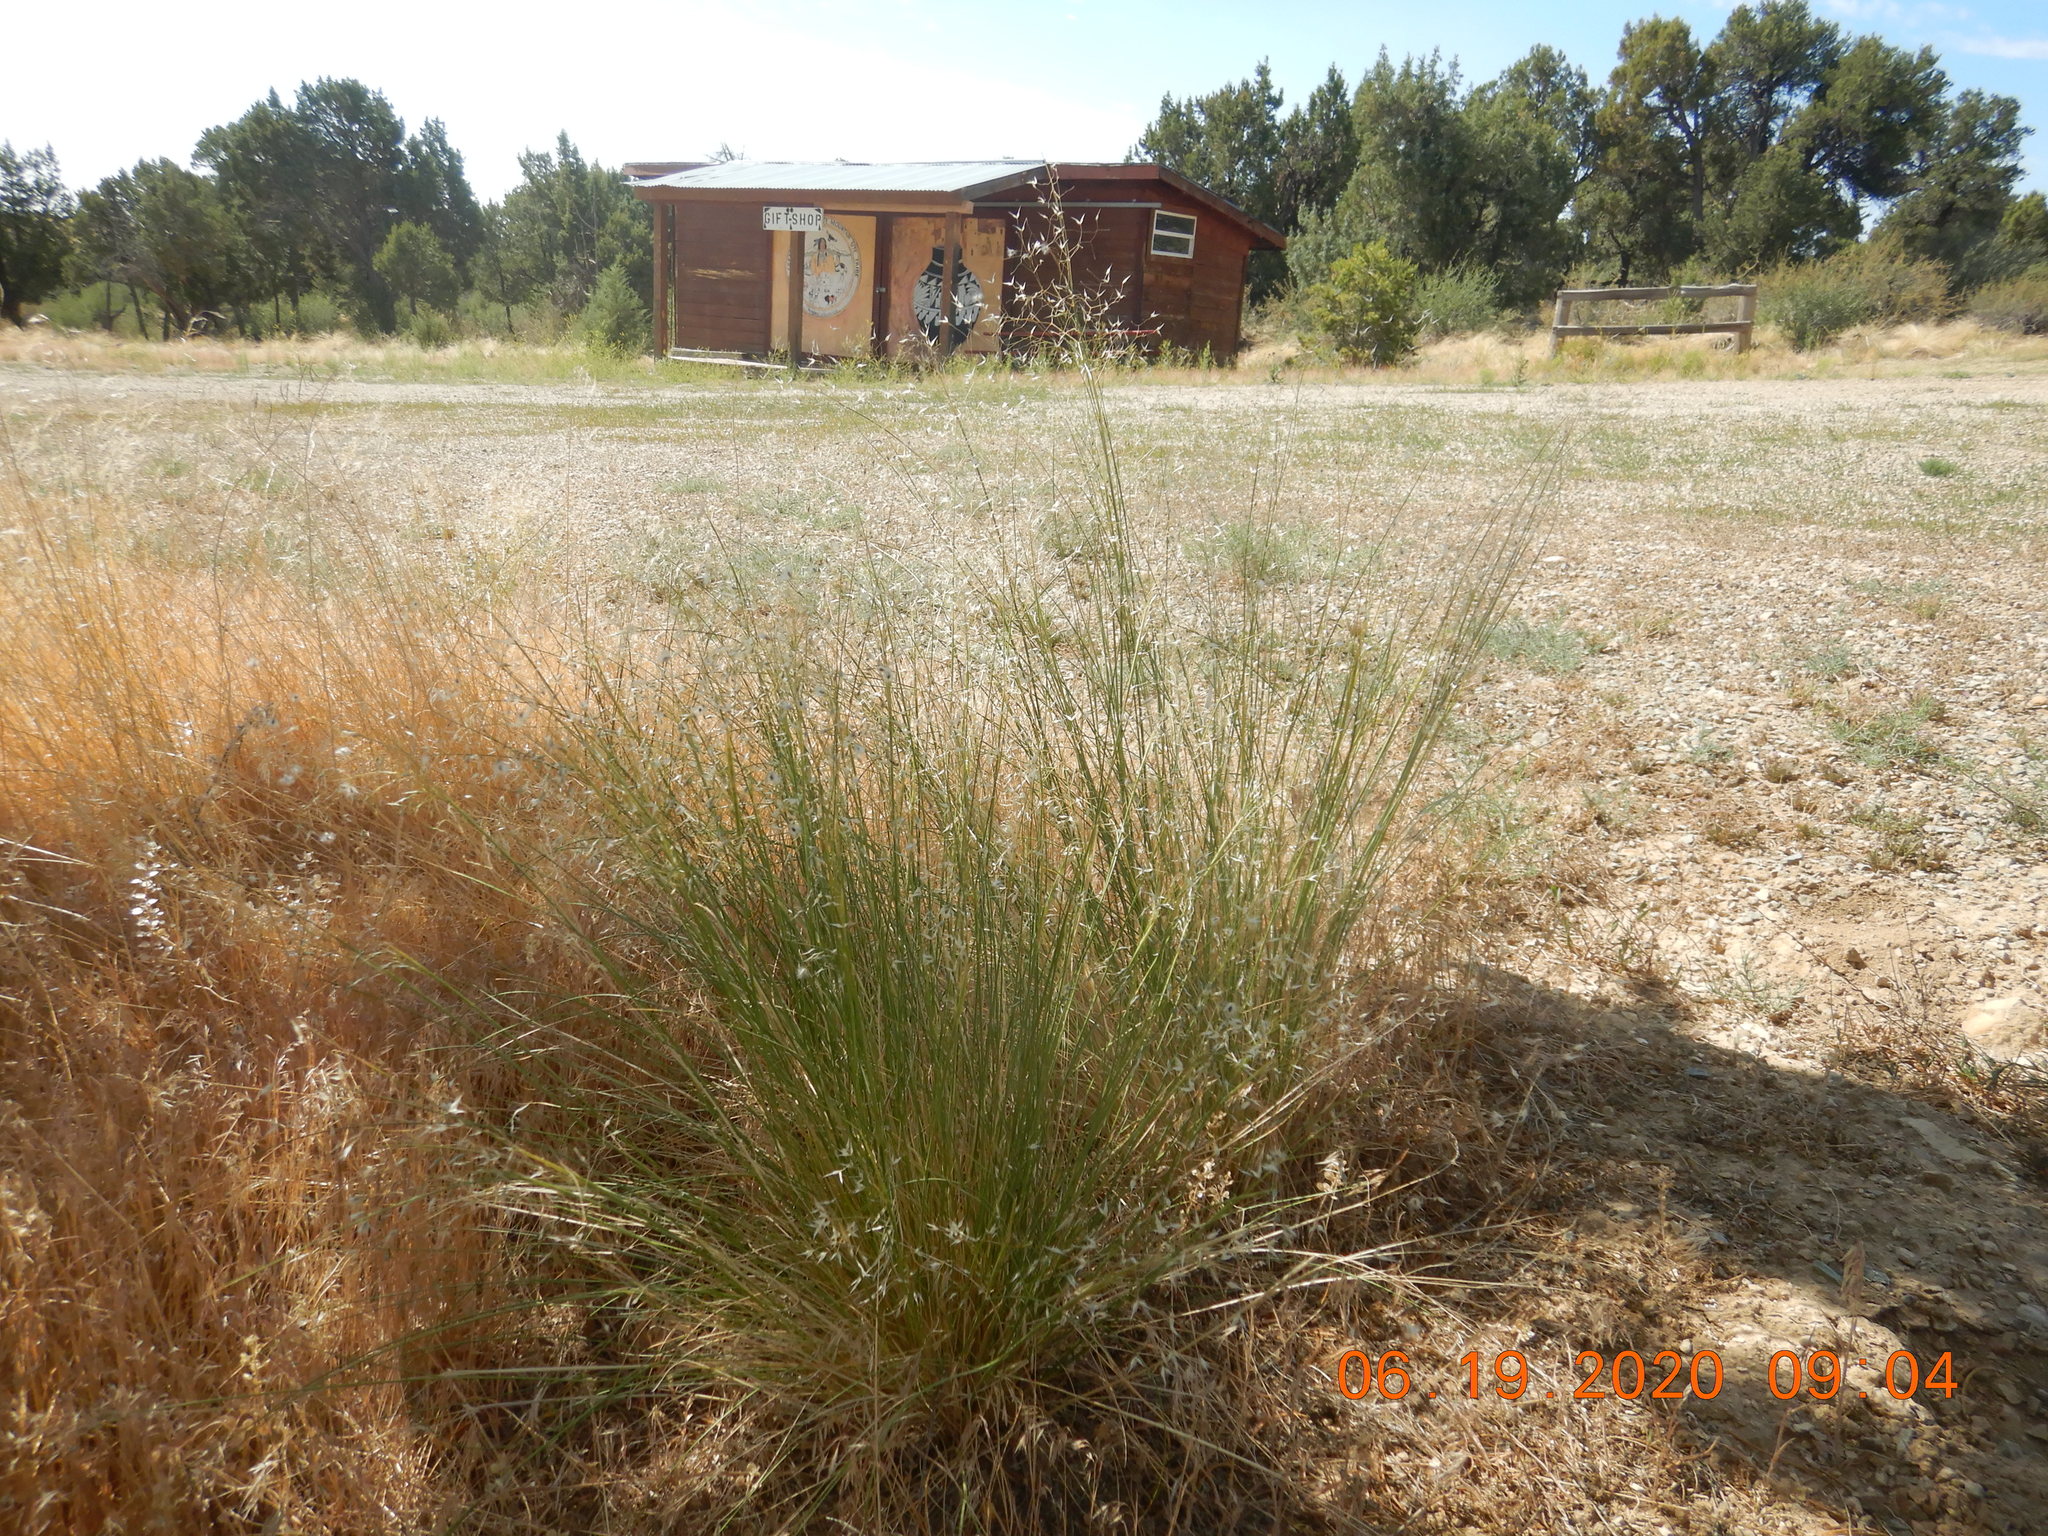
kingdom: Plantae
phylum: Tracheophyta
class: Liliopsida
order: Poales
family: Poaceae
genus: Eriocoma
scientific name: Eriocoma hymenoides
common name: Indian mountain ricegrass
